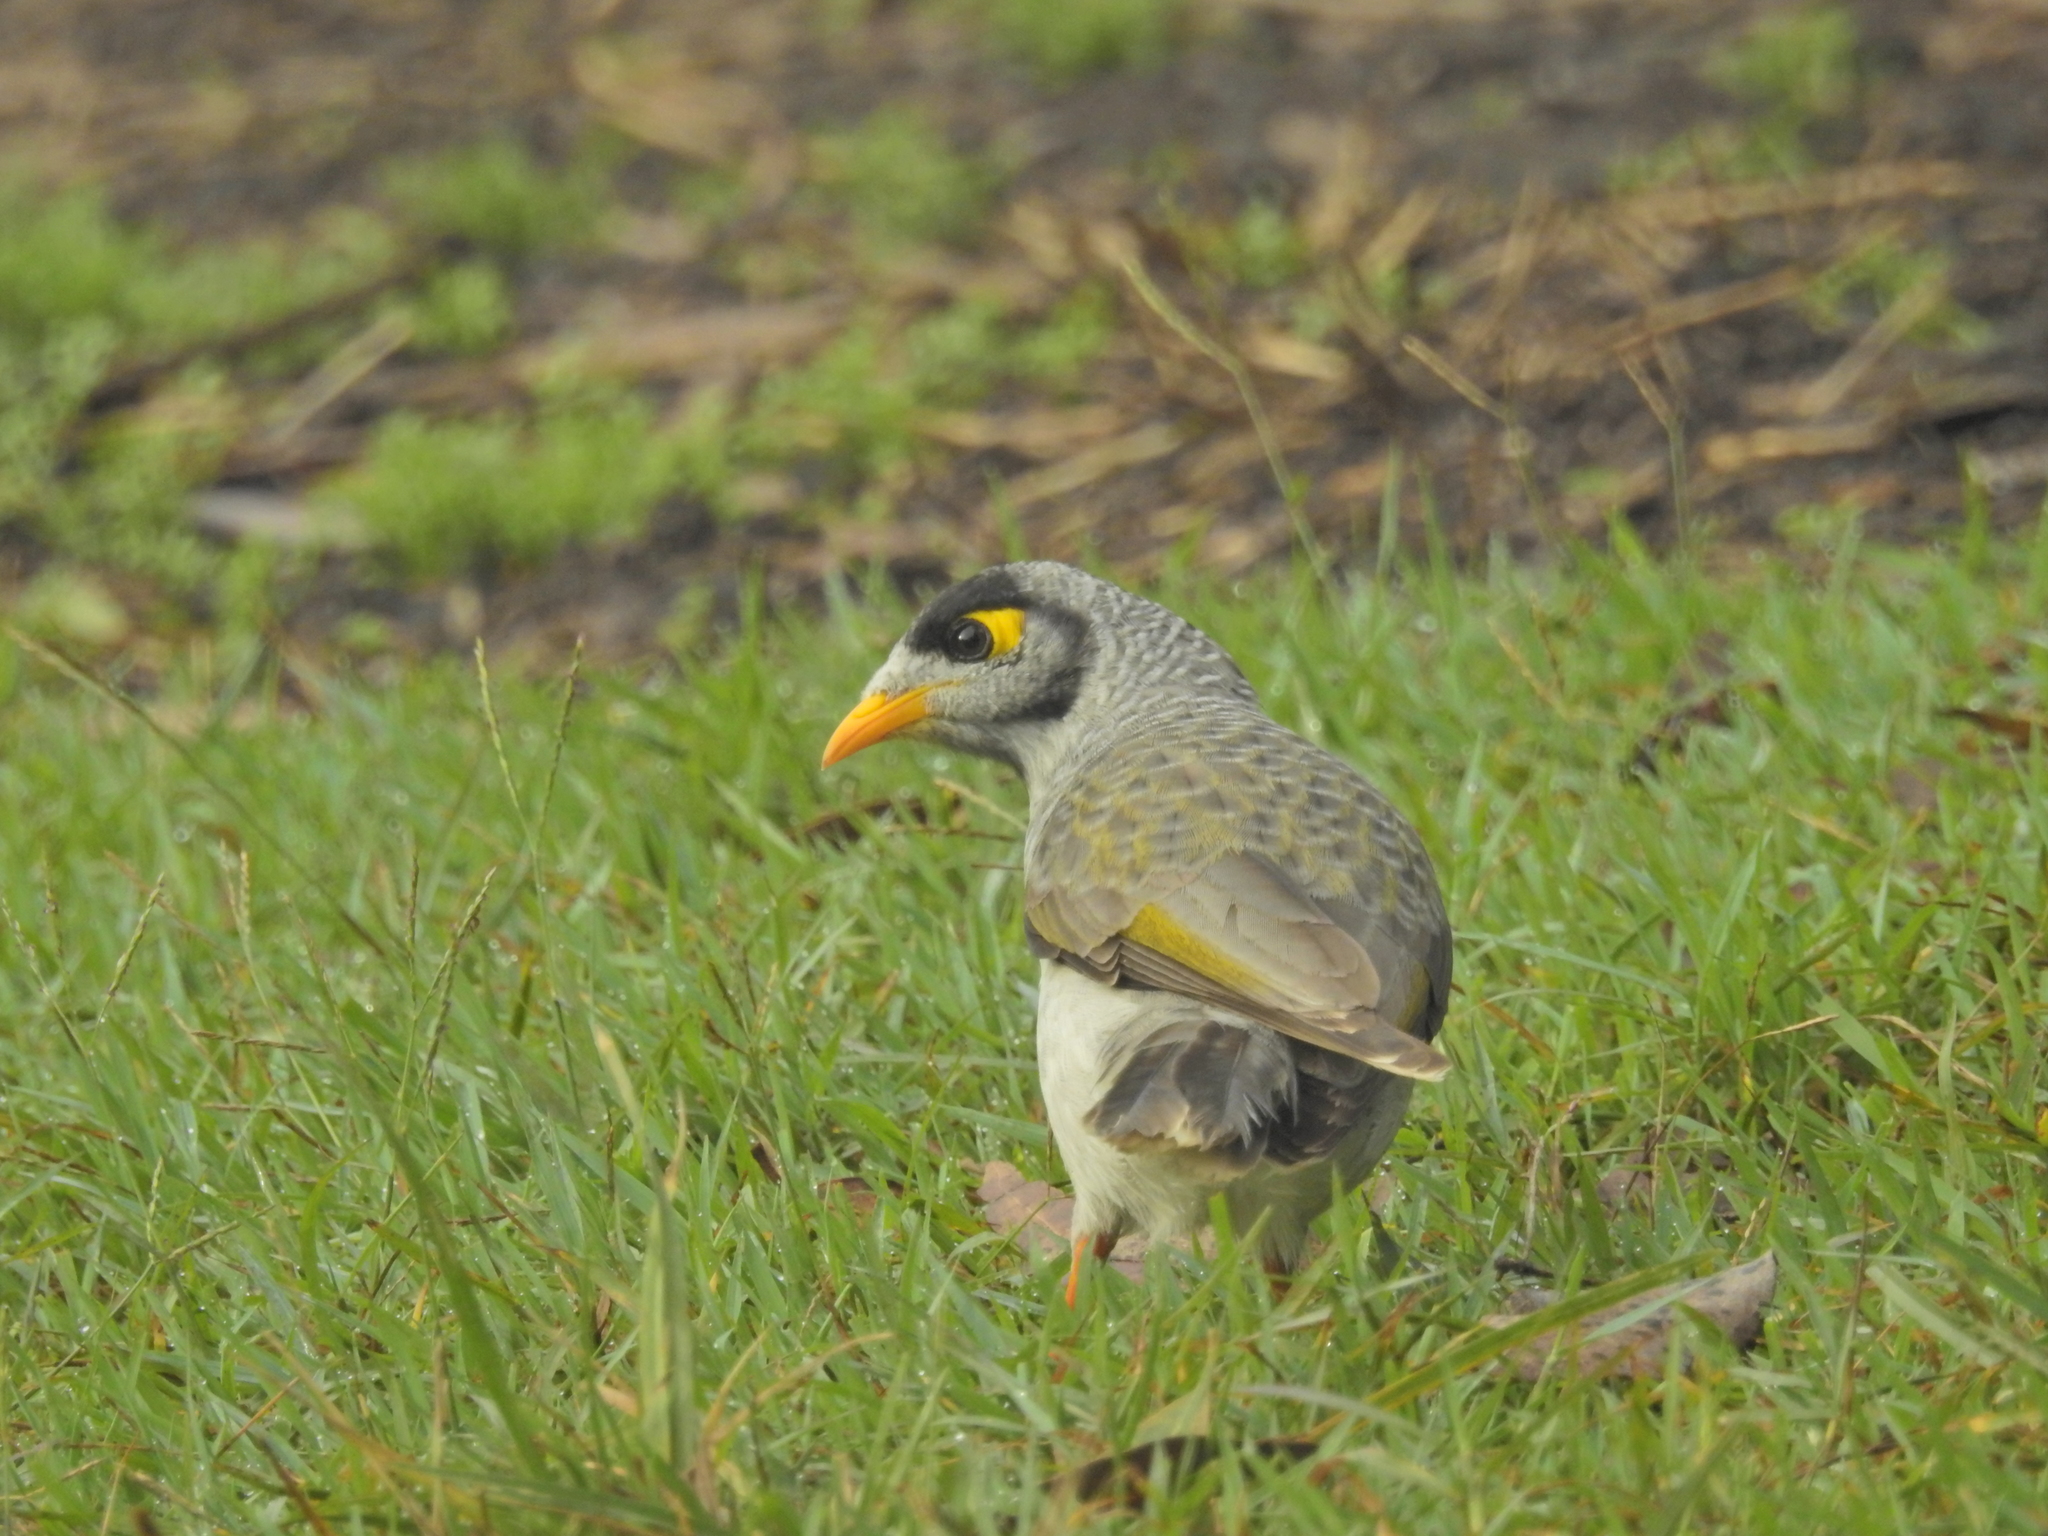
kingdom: Animalia
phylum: Chordata
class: Aves
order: Passeriformes
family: Meliphagidae
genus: Manorina
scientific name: Manorina melanocephala
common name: Noisy miner
